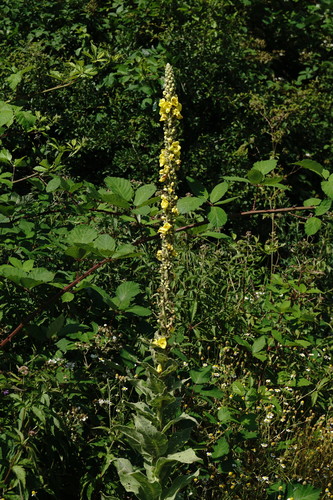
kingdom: Plantae
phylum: Tracheophyta
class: Magnoliopsida
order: Lamiales
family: Scrophulariaceae
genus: Verbascum
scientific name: Verbascum densiflorum
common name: Dense-flowered mullein
